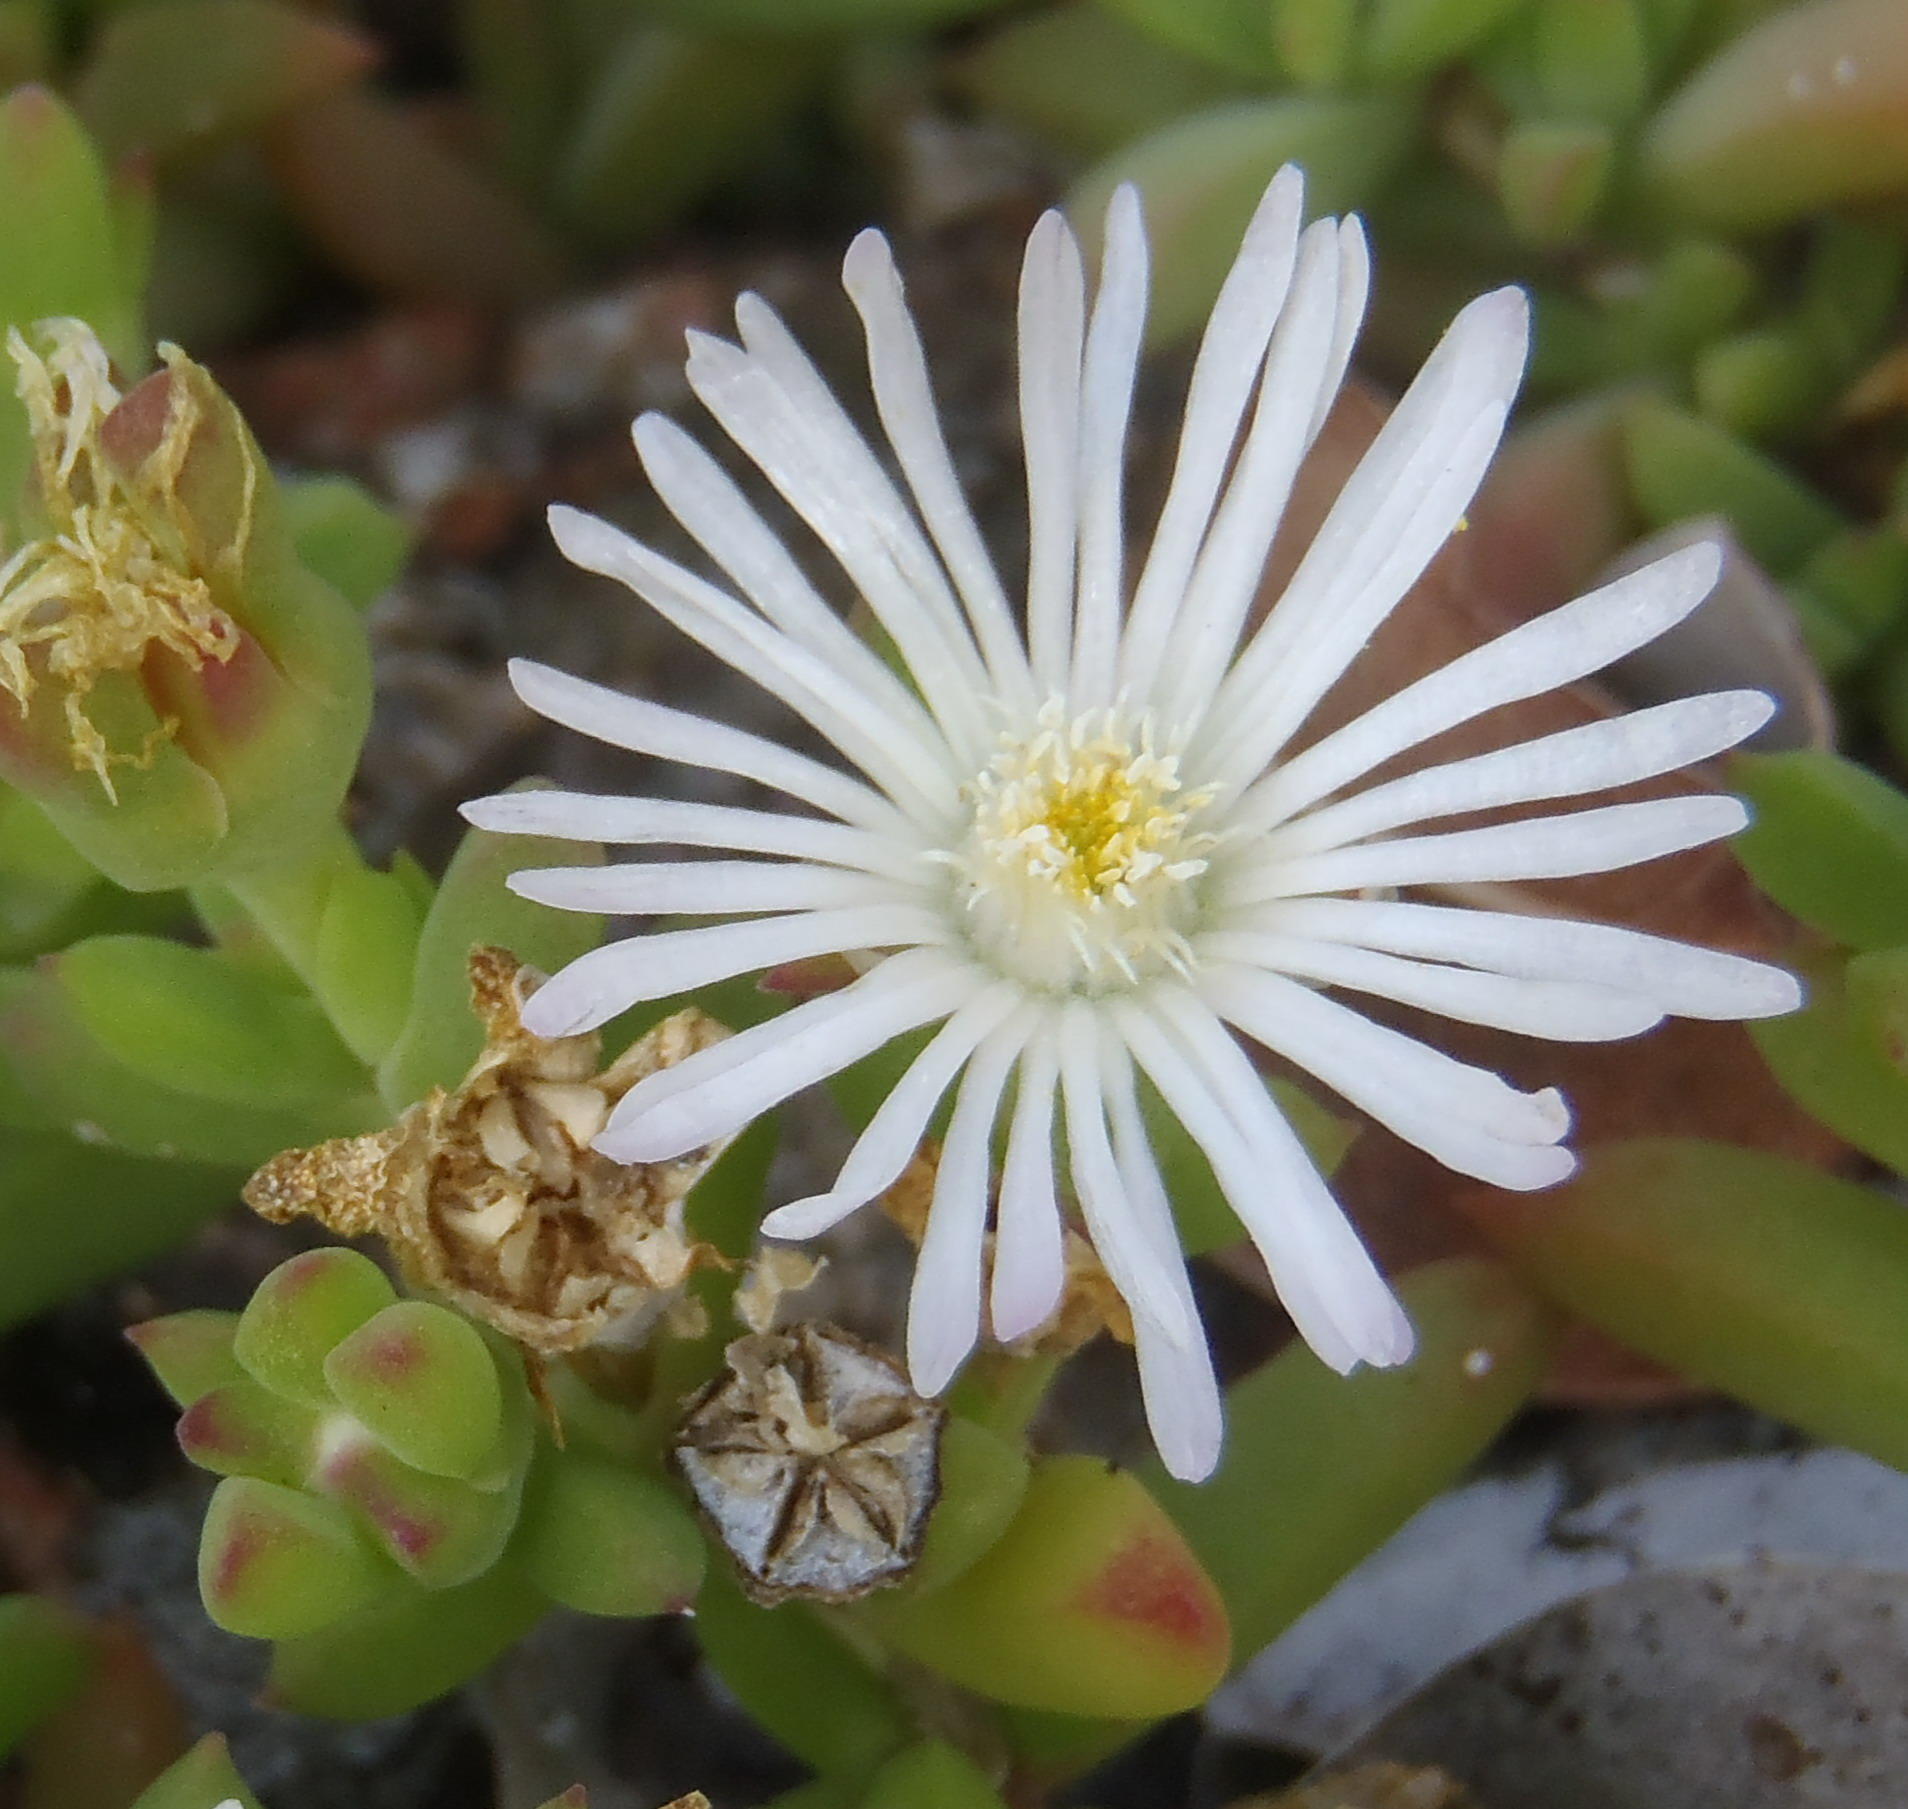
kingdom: Plantae
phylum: Tracheophyta
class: Magnoliopsida
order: Caryophyllales
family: Aizoaceae
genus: Delosperma
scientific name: Delosperma litorale
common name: Seaside delosperma
